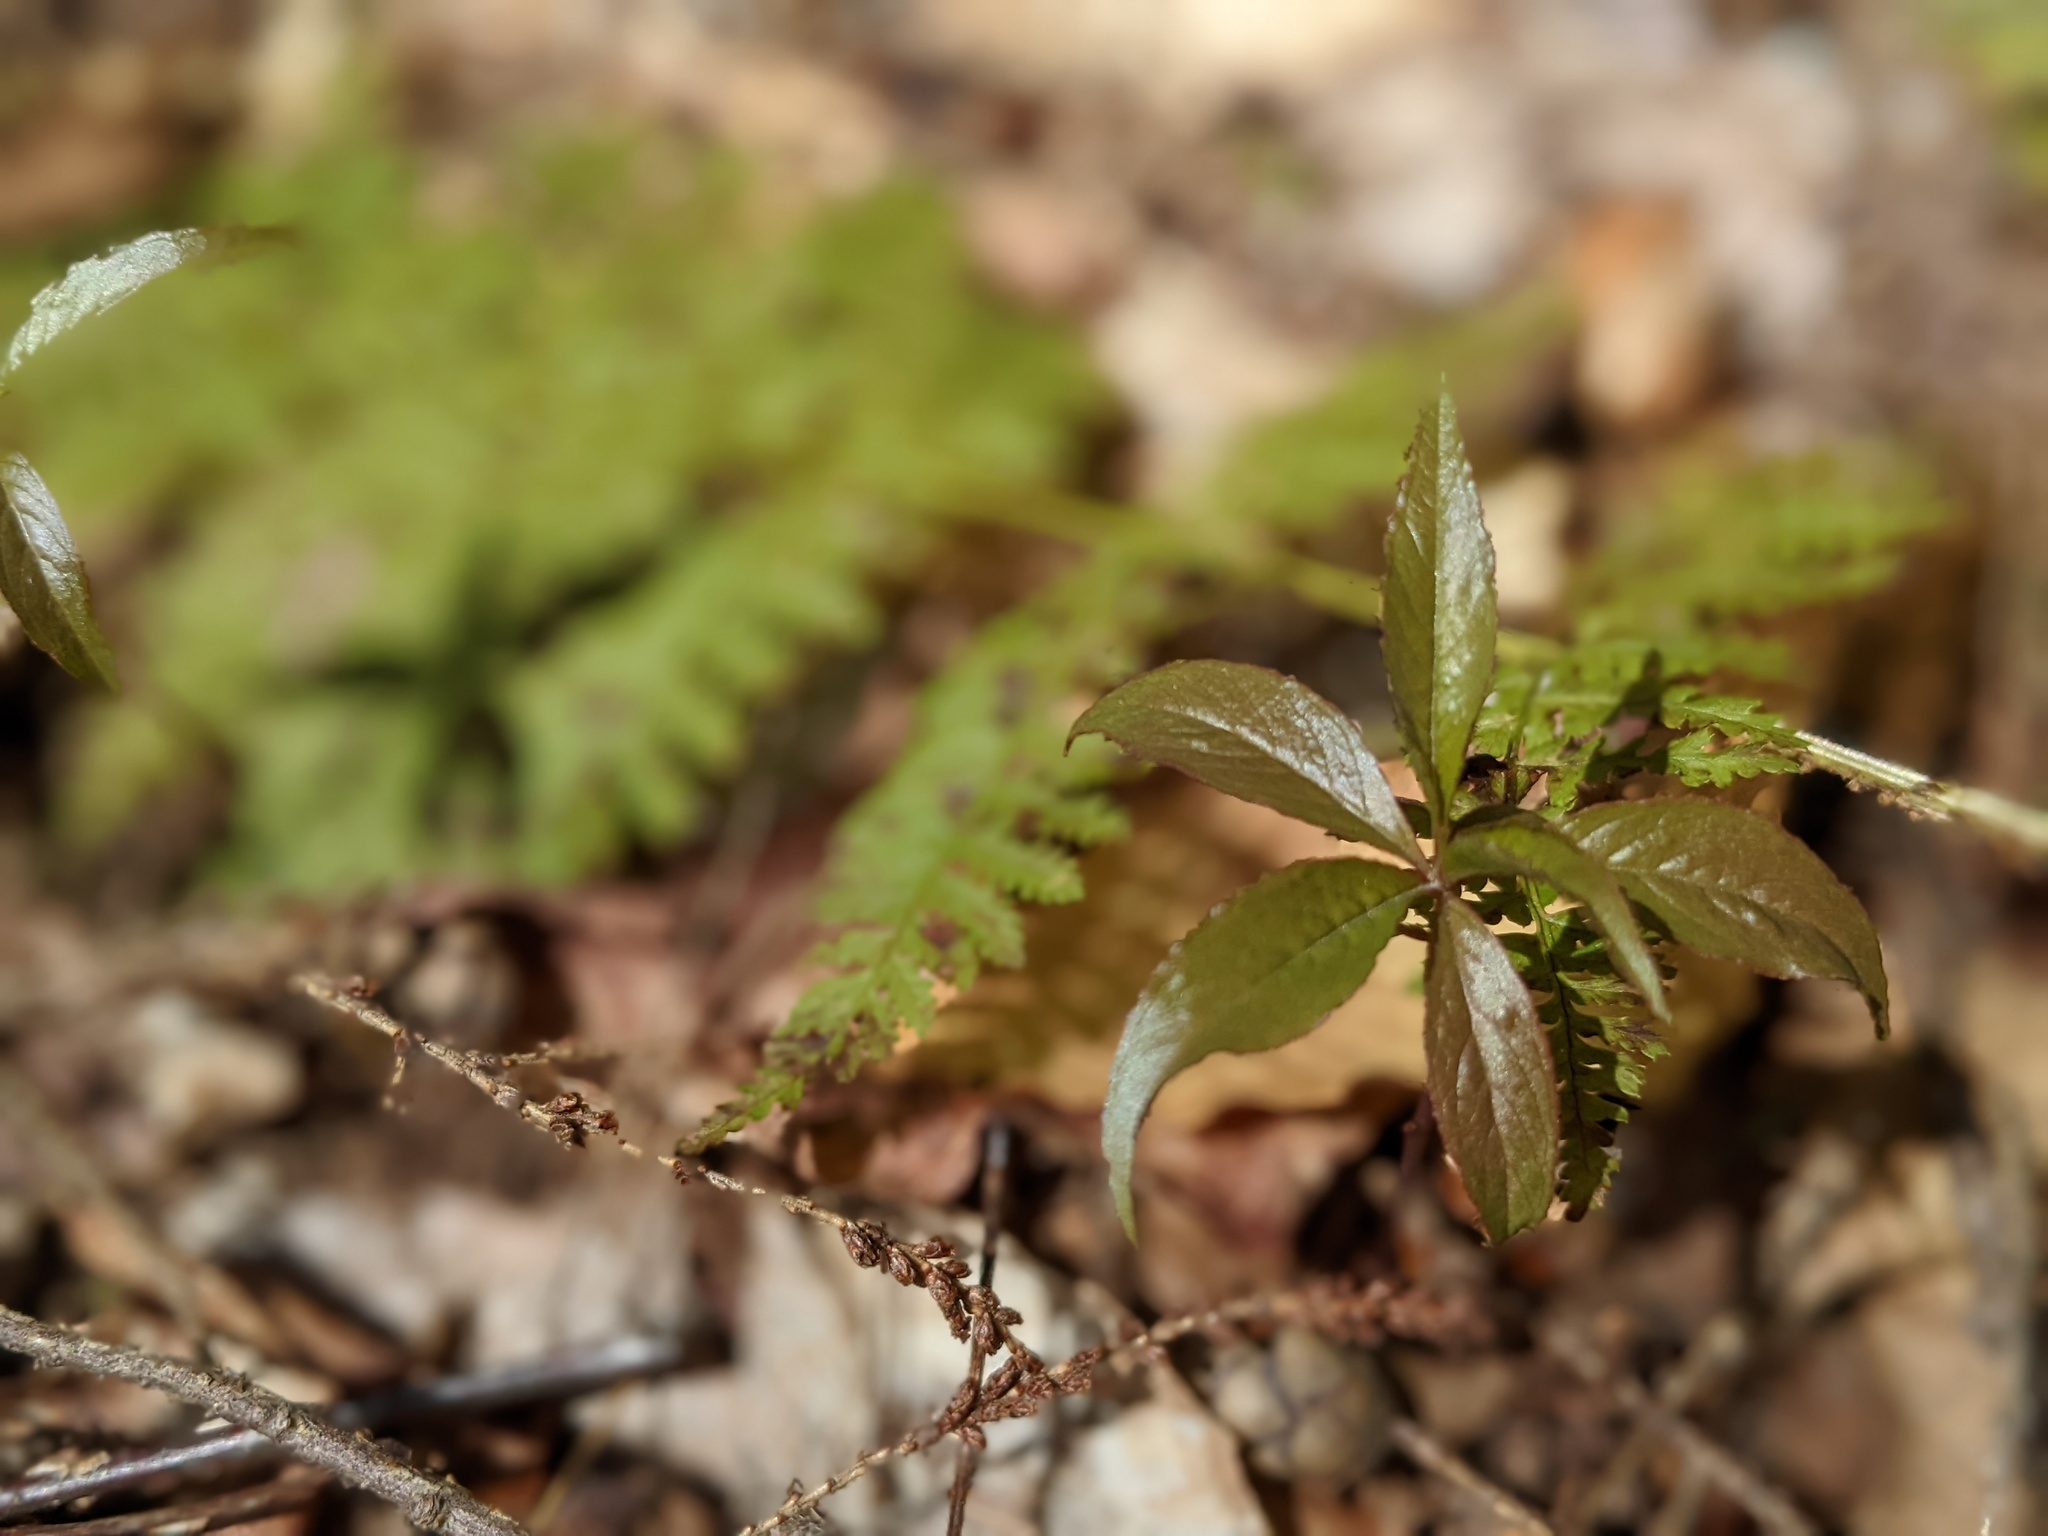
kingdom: Plantae
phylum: Tracheophyta
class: Magnoliopsida
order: Ericales
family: Primulaceae
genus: Lysimachia
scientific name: Lysimachia borealis
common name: American starflower
